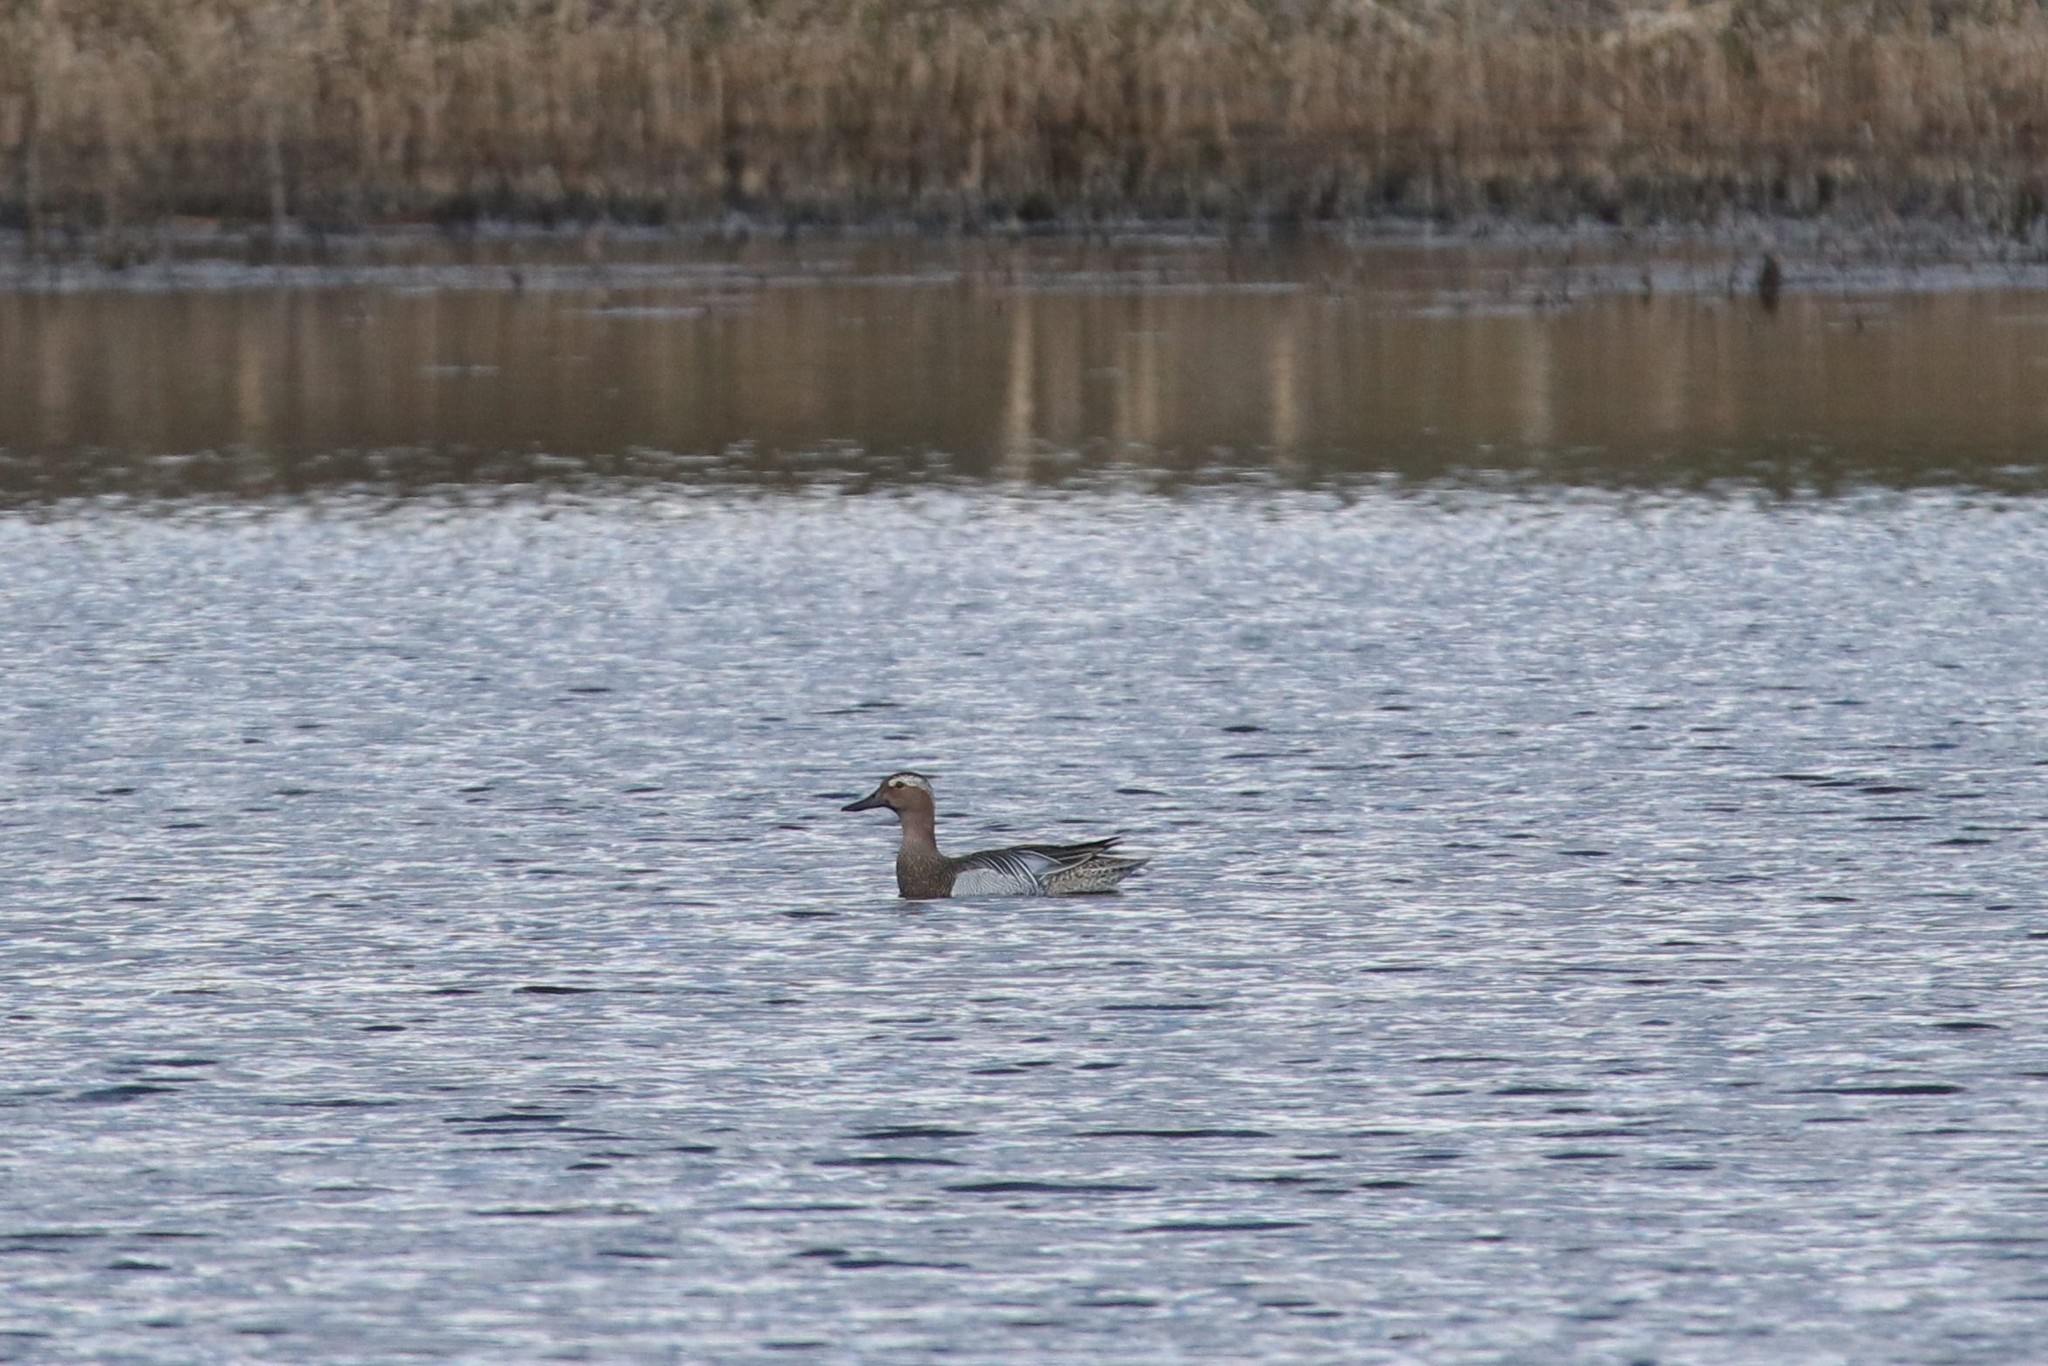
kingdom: Animalia
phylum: Chordata
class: Aves
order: Anseriformes
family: Anatidae
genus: Spatula
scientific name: Spatula querquedula
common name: Garganey
